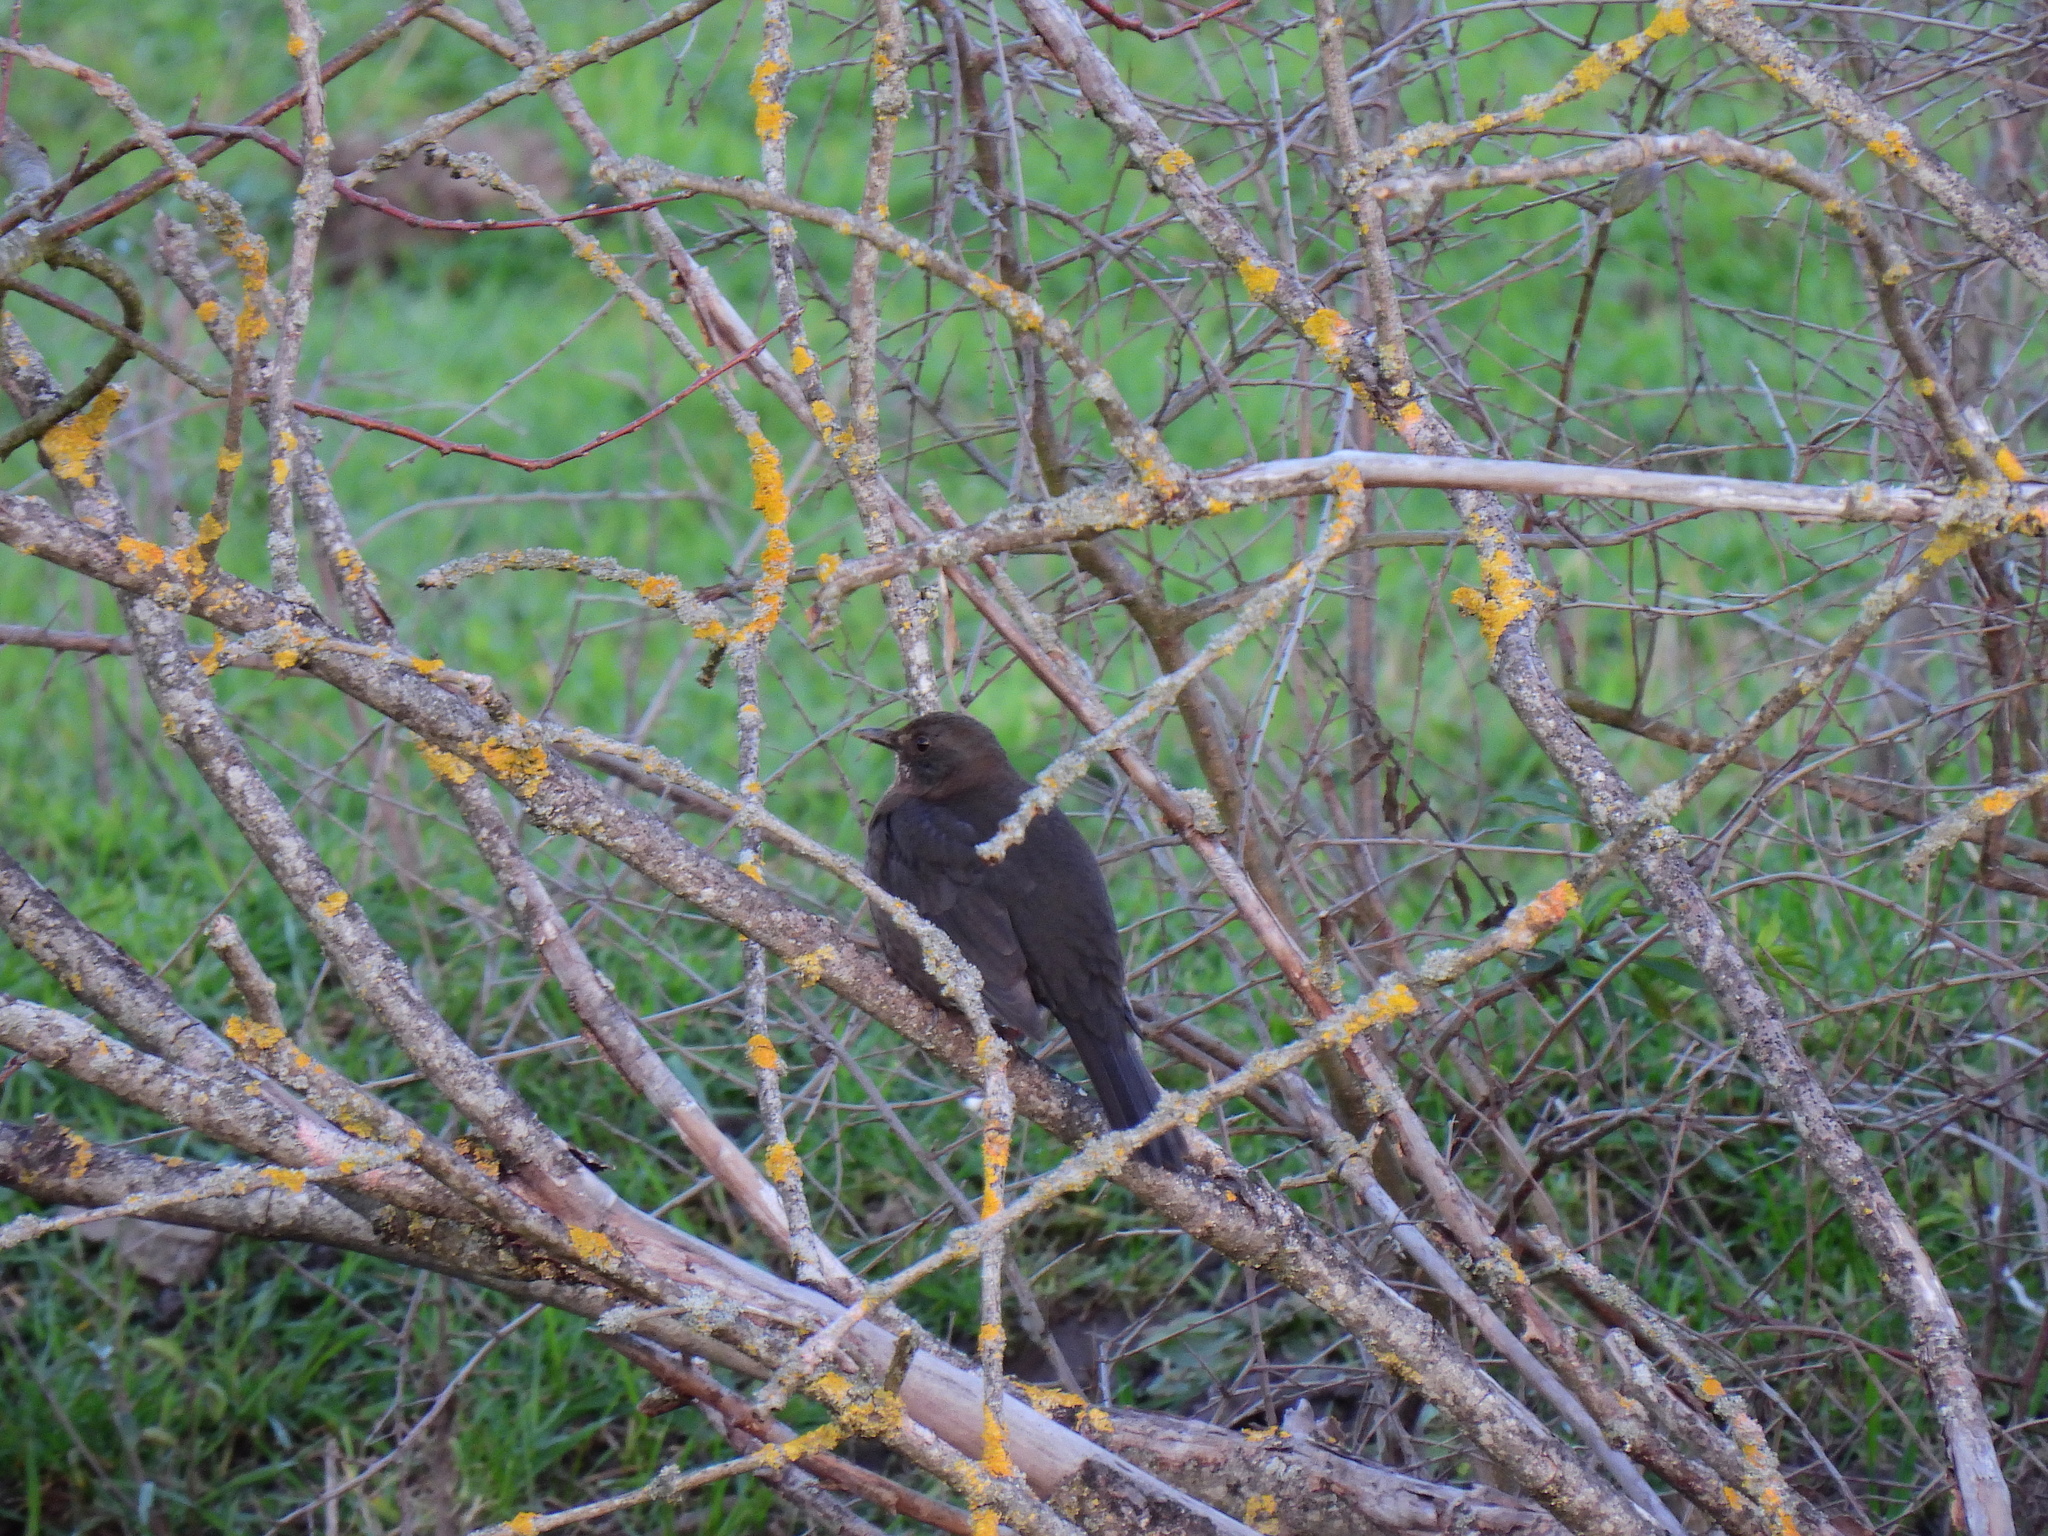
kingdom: Animalia
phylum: Chordata
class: Aves
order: Passeriformes
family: Turdidae
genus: Turdus
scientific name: Turdus merula
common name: Common blackbird
